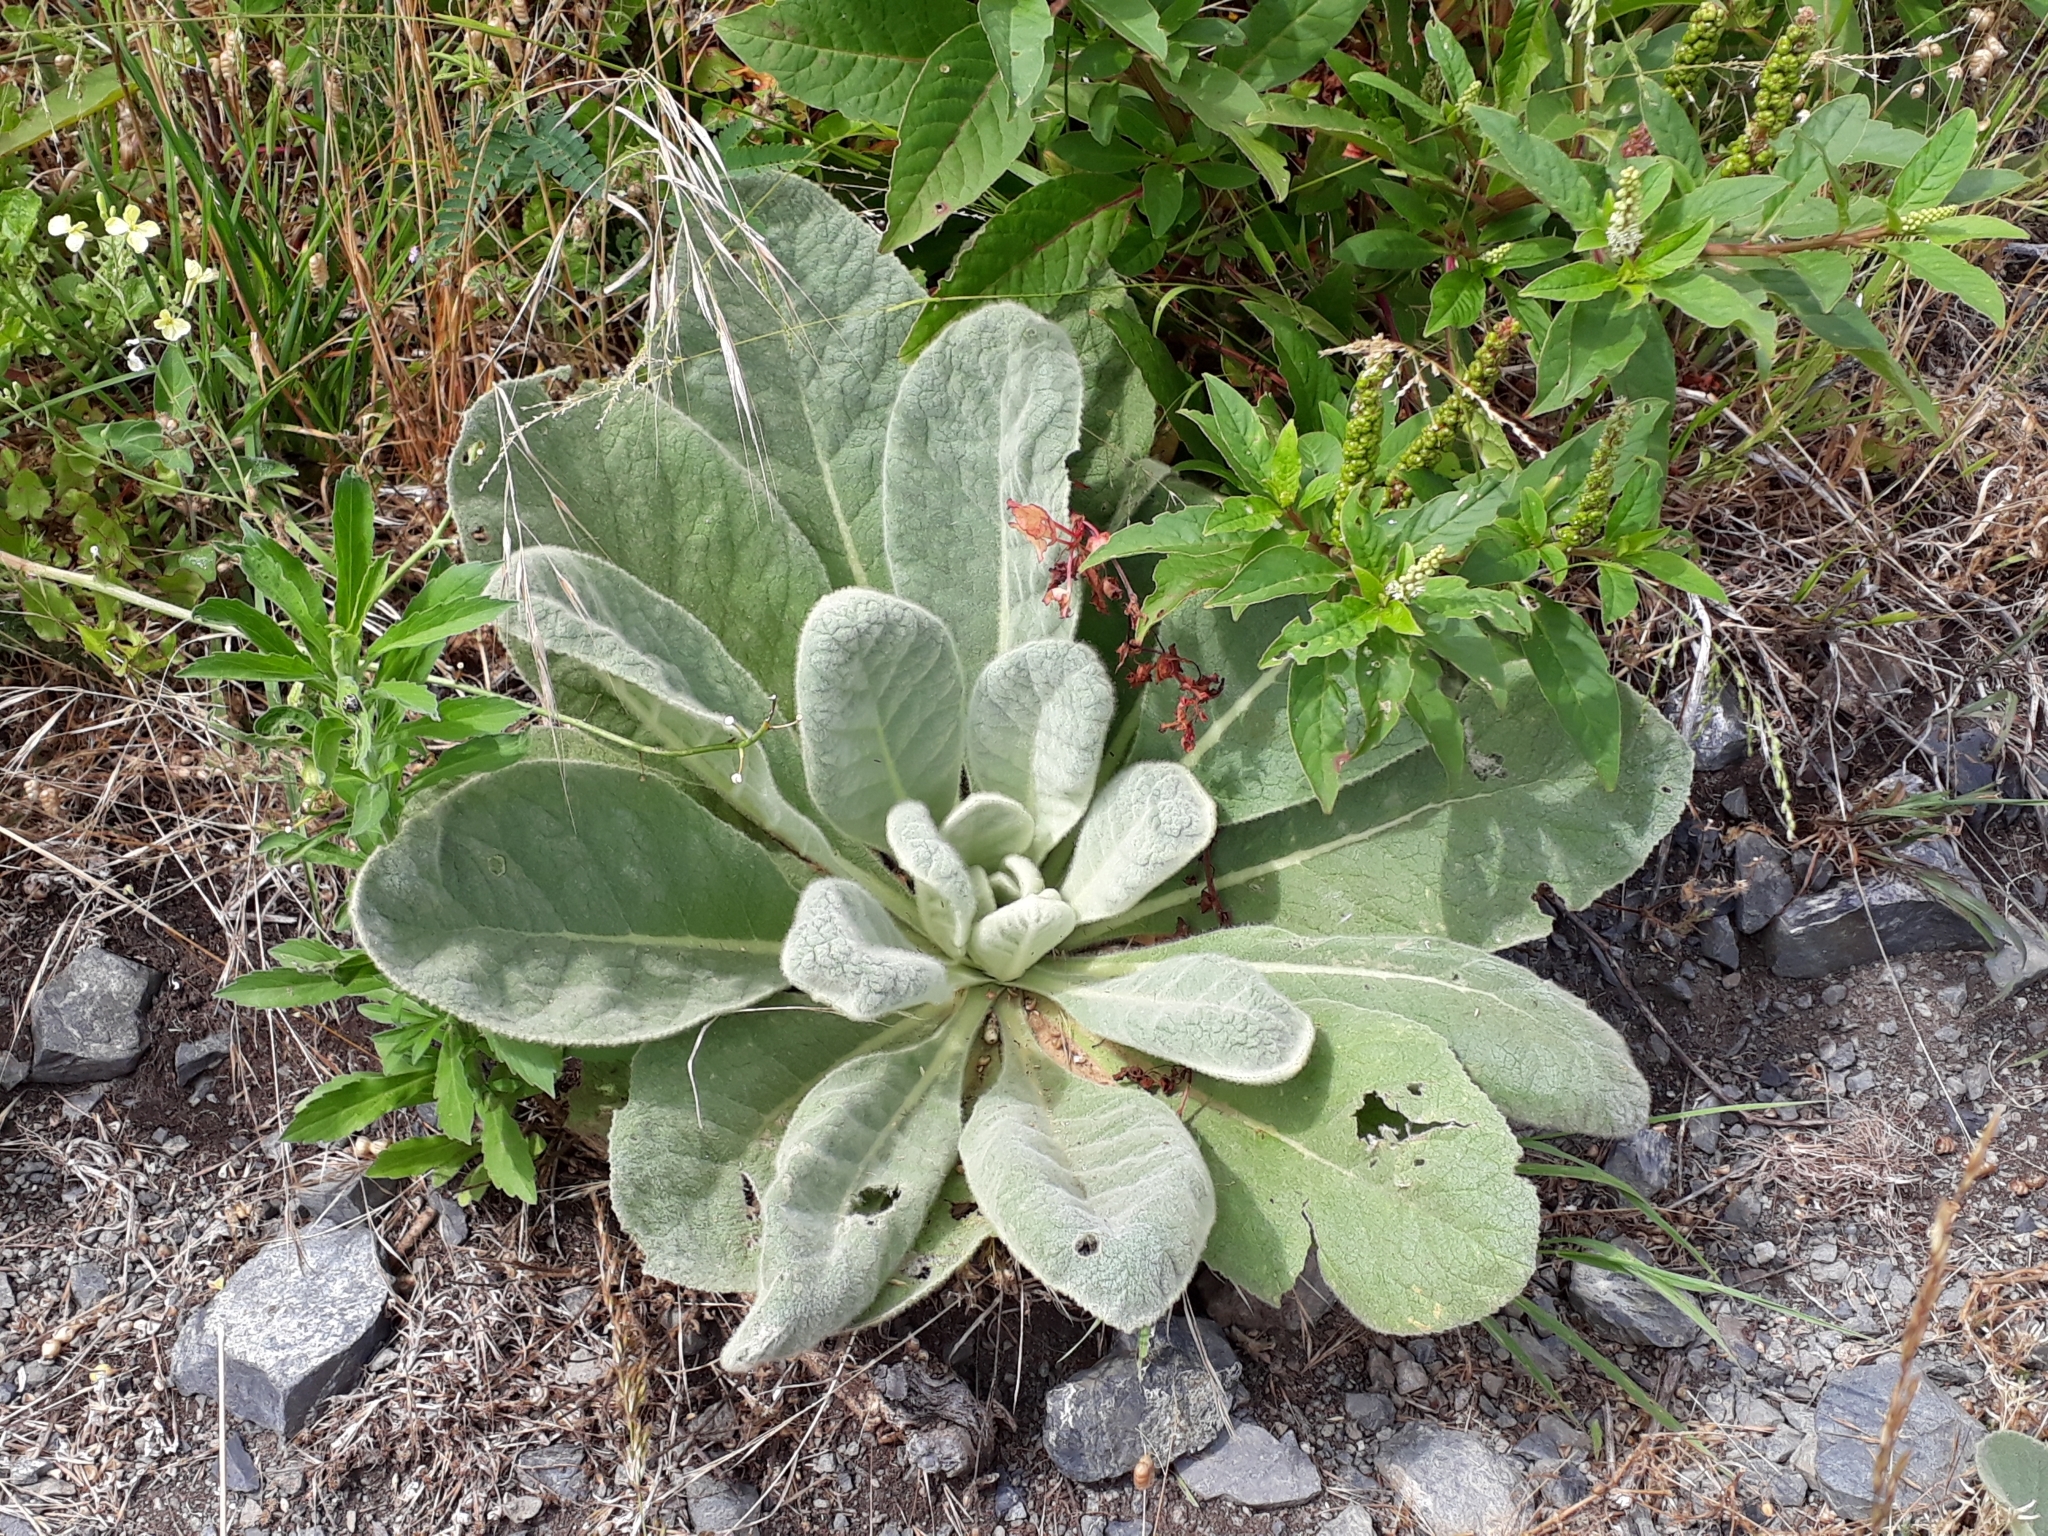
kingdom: Plantae
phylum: Tracheophyta
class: Magnoliopsida
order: Lamiales
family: Scrophulariaceae
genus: Verbascum
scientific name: Verbascum thapsus
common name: Common mullein
